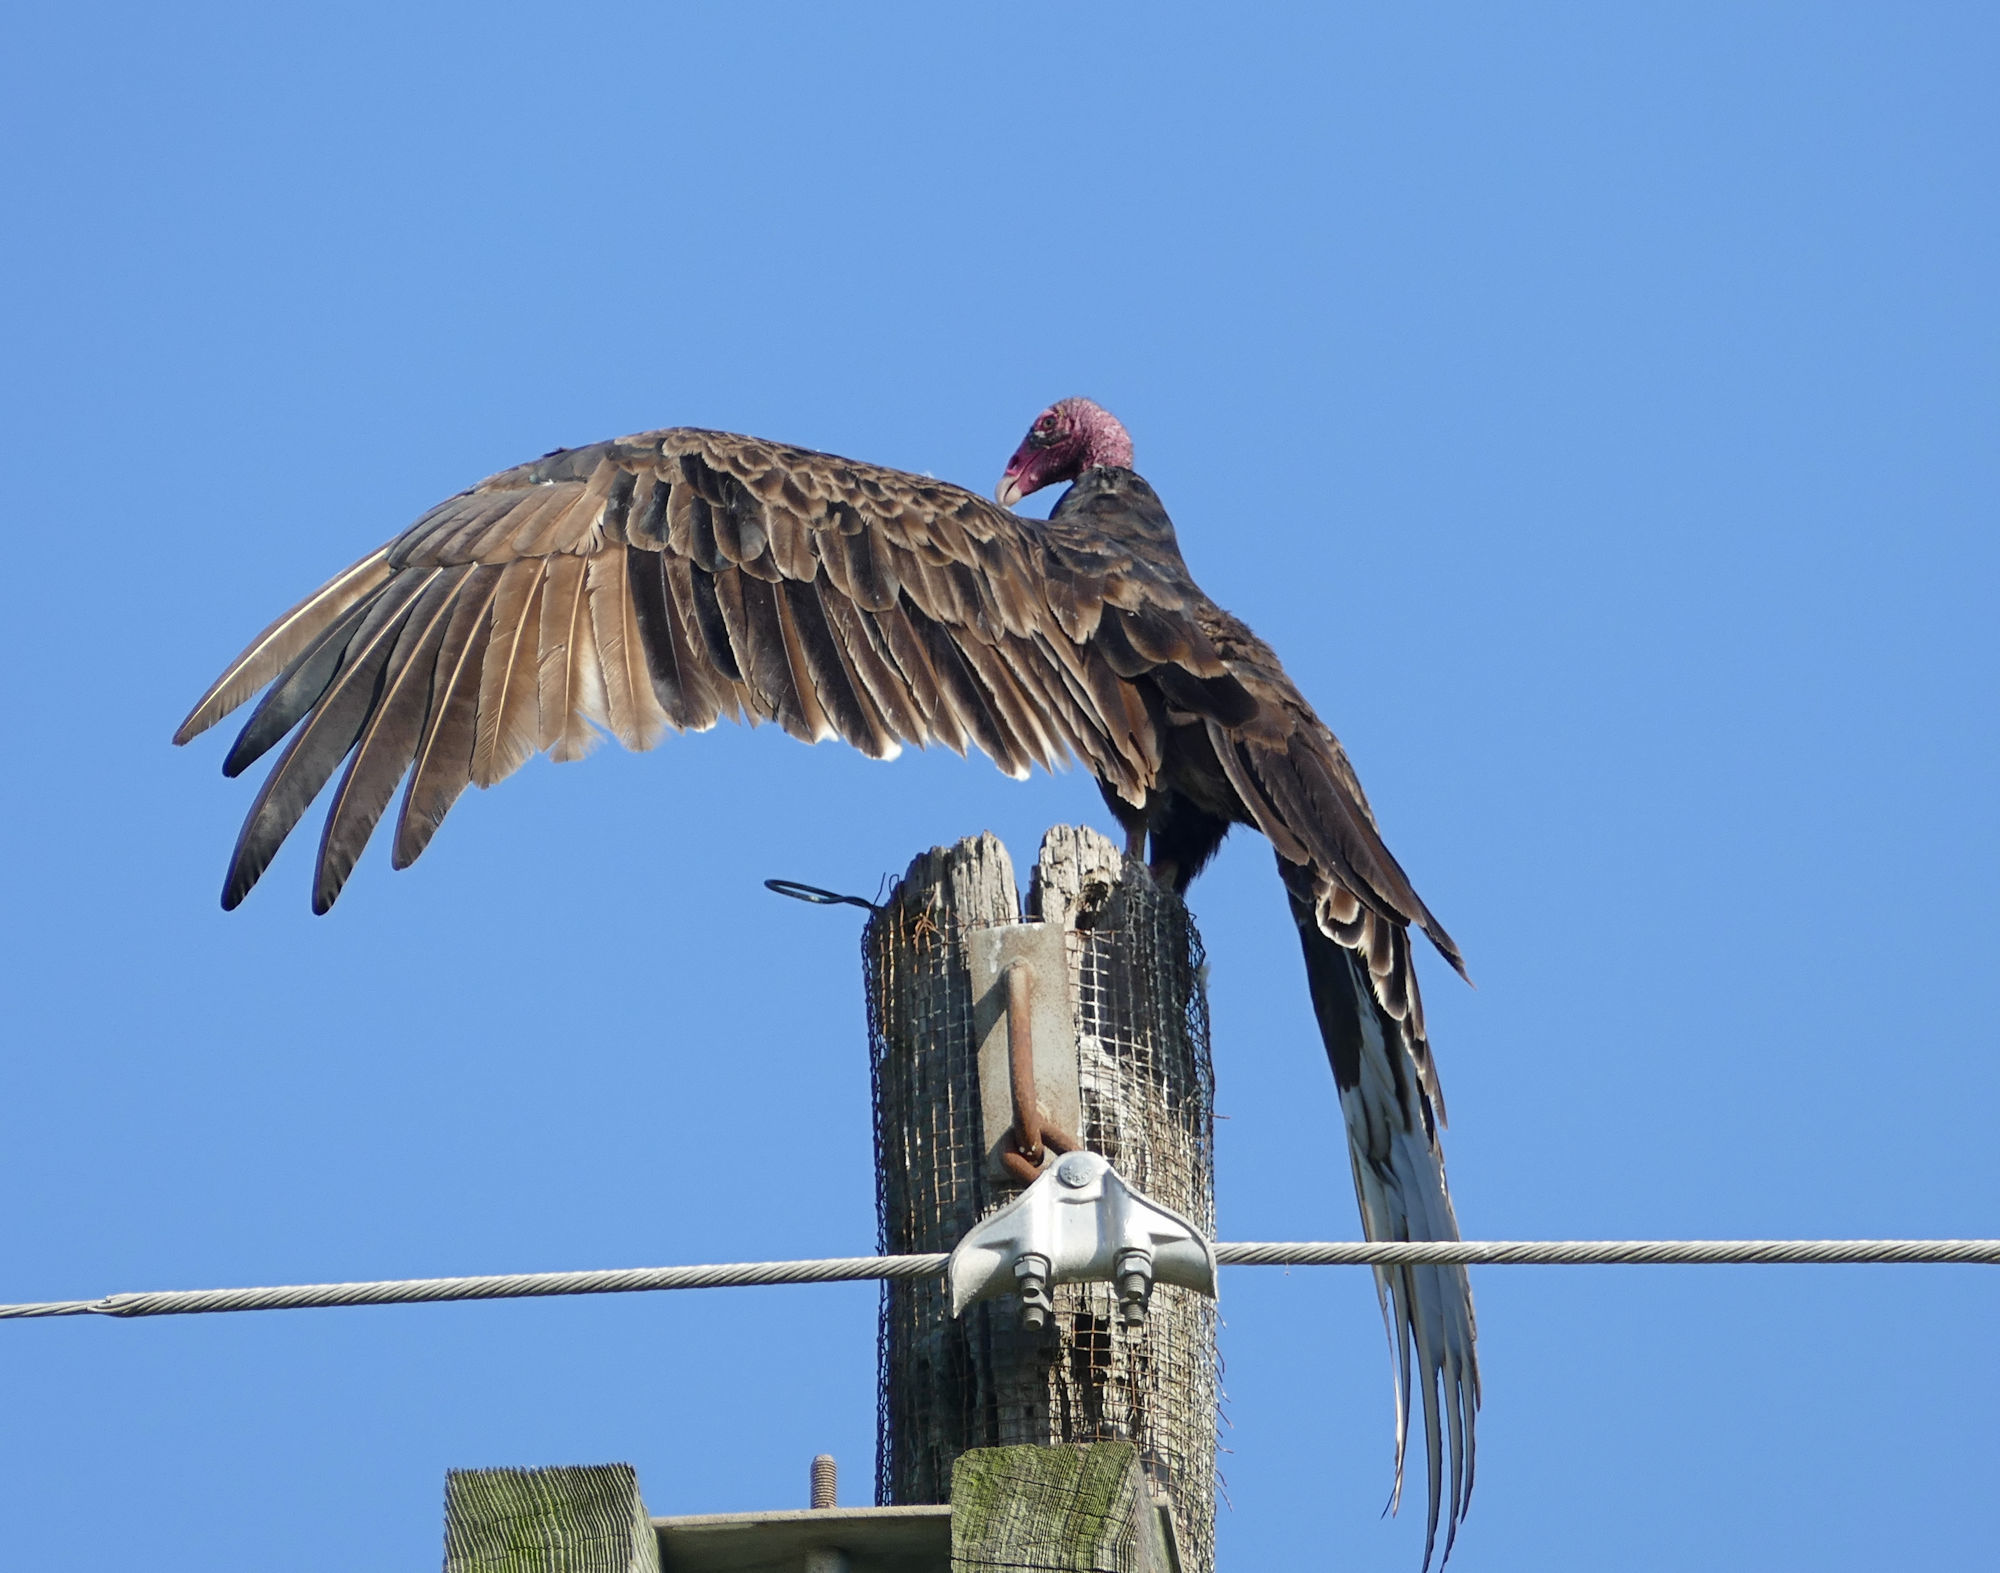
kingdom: Animalia
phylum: Chordata
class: Aves
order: Accipitriformes
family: Cathartidae
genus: Cathartes
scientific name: Cathartes aura
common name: Turkey vulture
